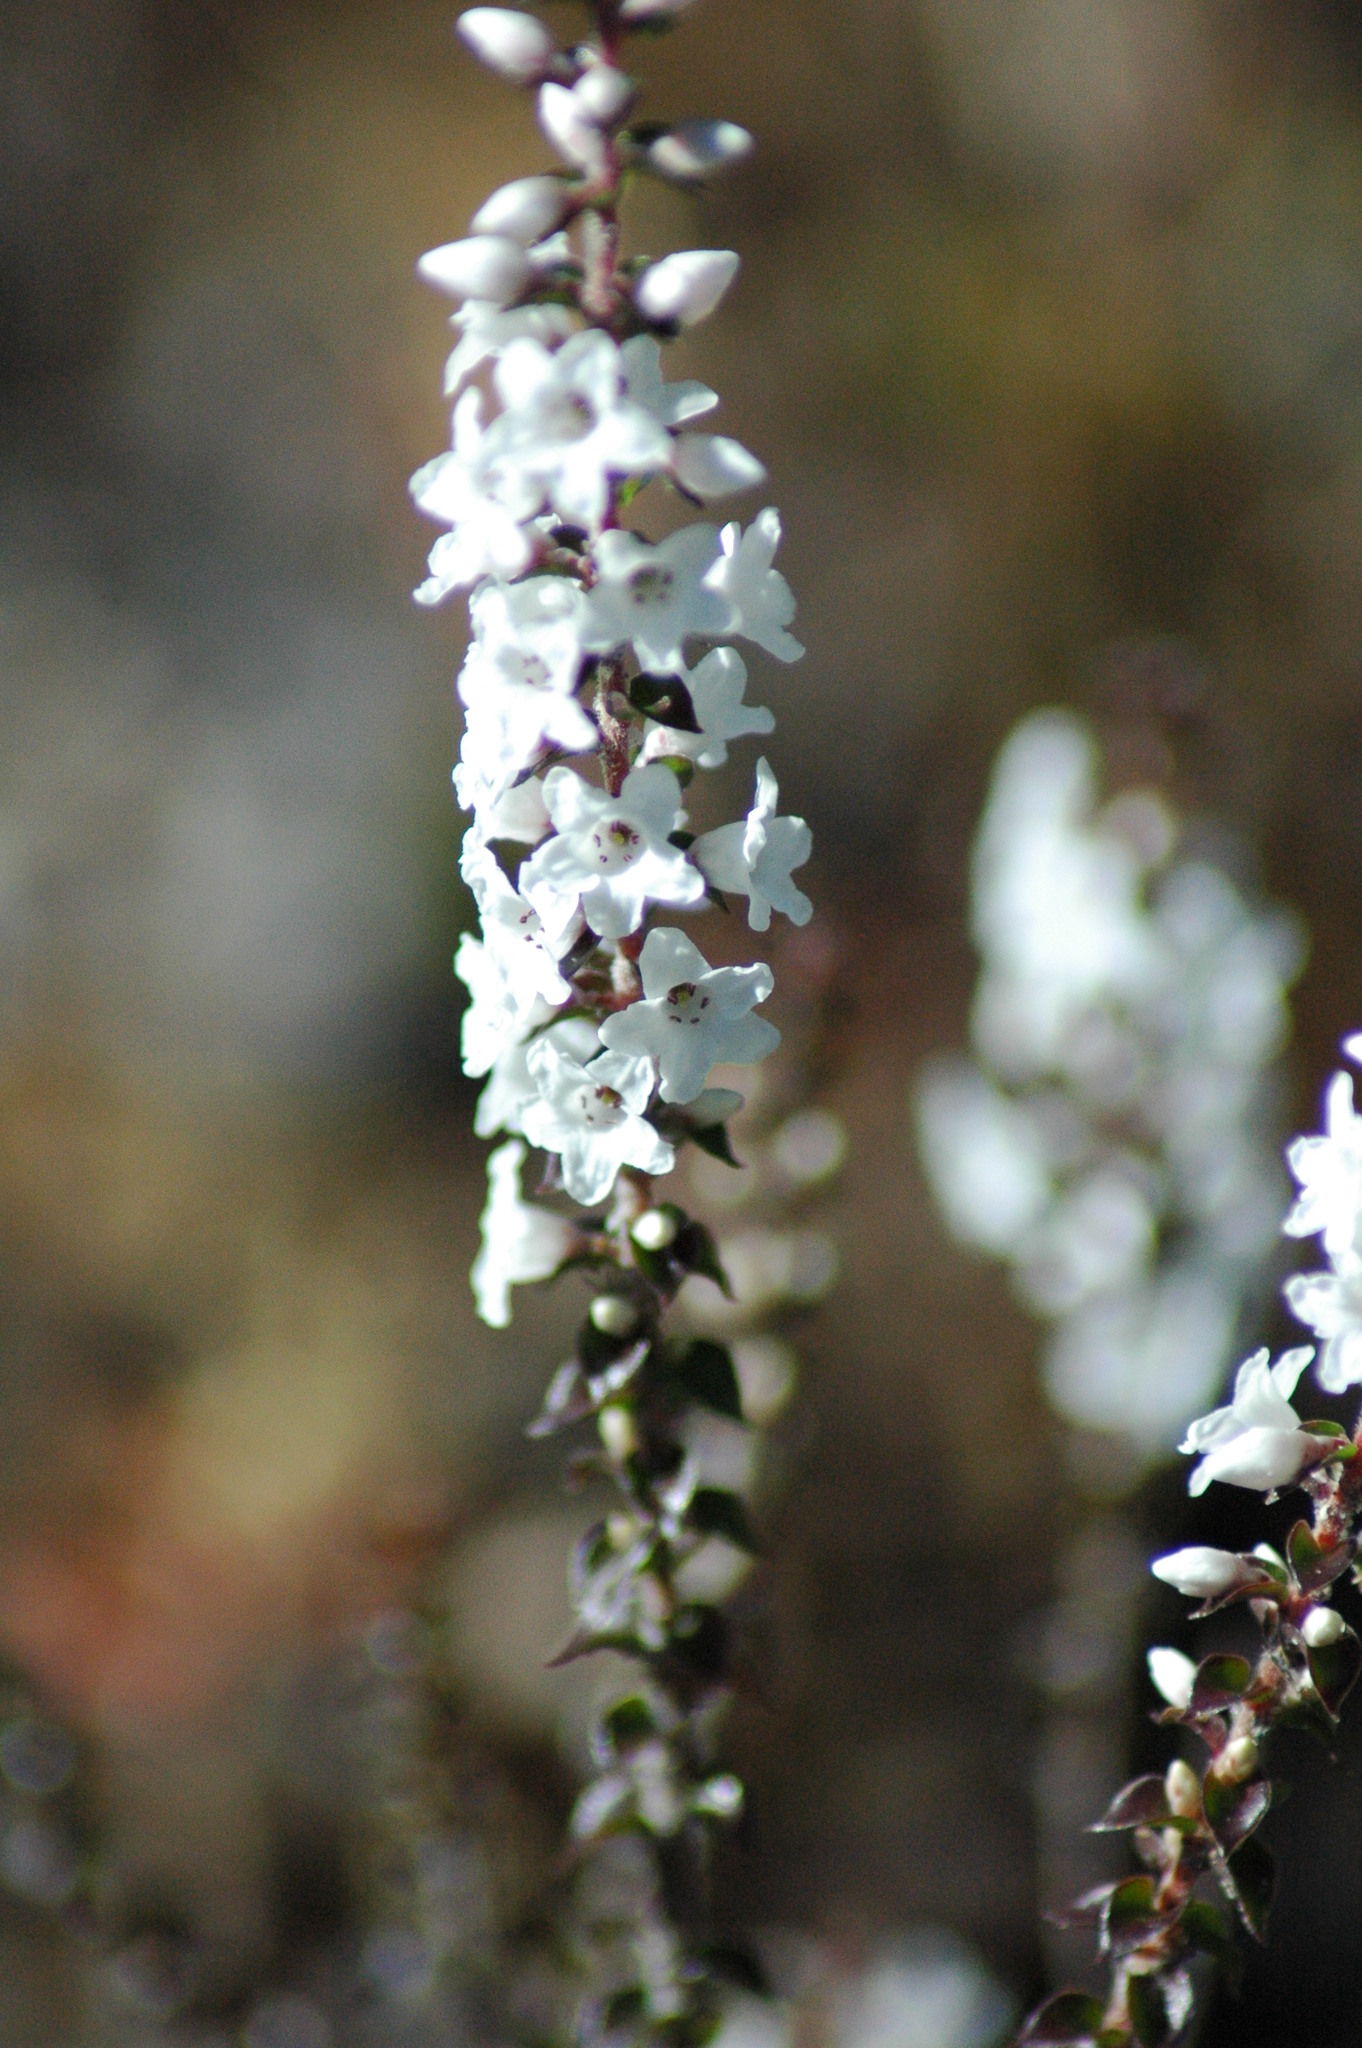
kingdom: Plantae
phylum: Tracheophyta
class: Magnoliopsida
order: Ericales
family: Ericaceae
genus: Epacris
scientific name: Epacris microphylla
